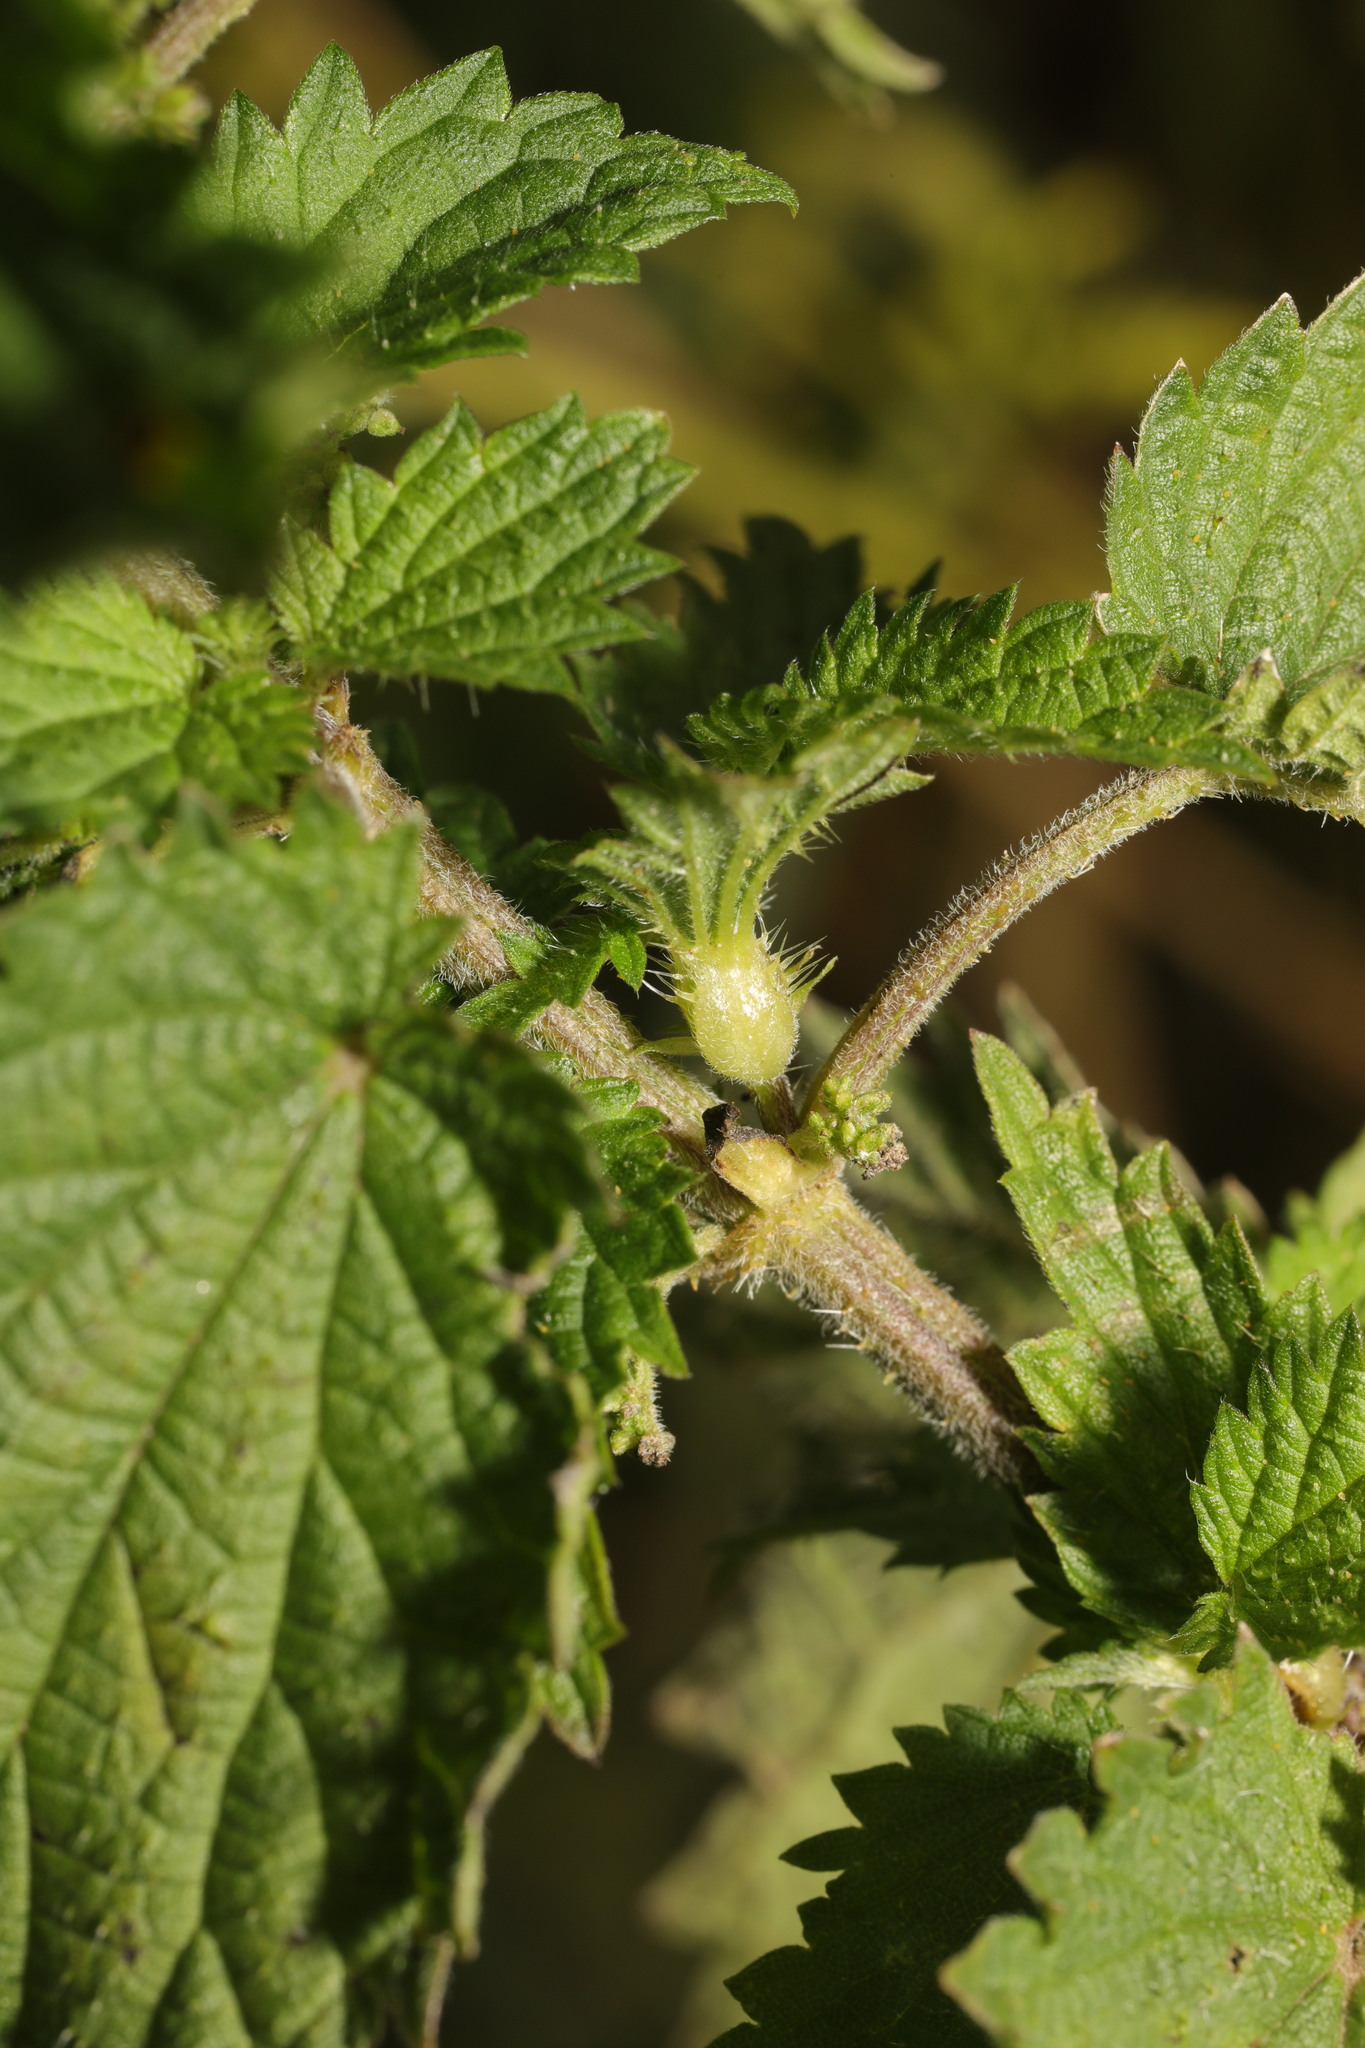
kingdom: Animalia
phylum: Arthropoda
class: Insecta
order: Diptera
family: Cecidomyiidae
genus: Dasineura
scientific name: Dasineura urticae
